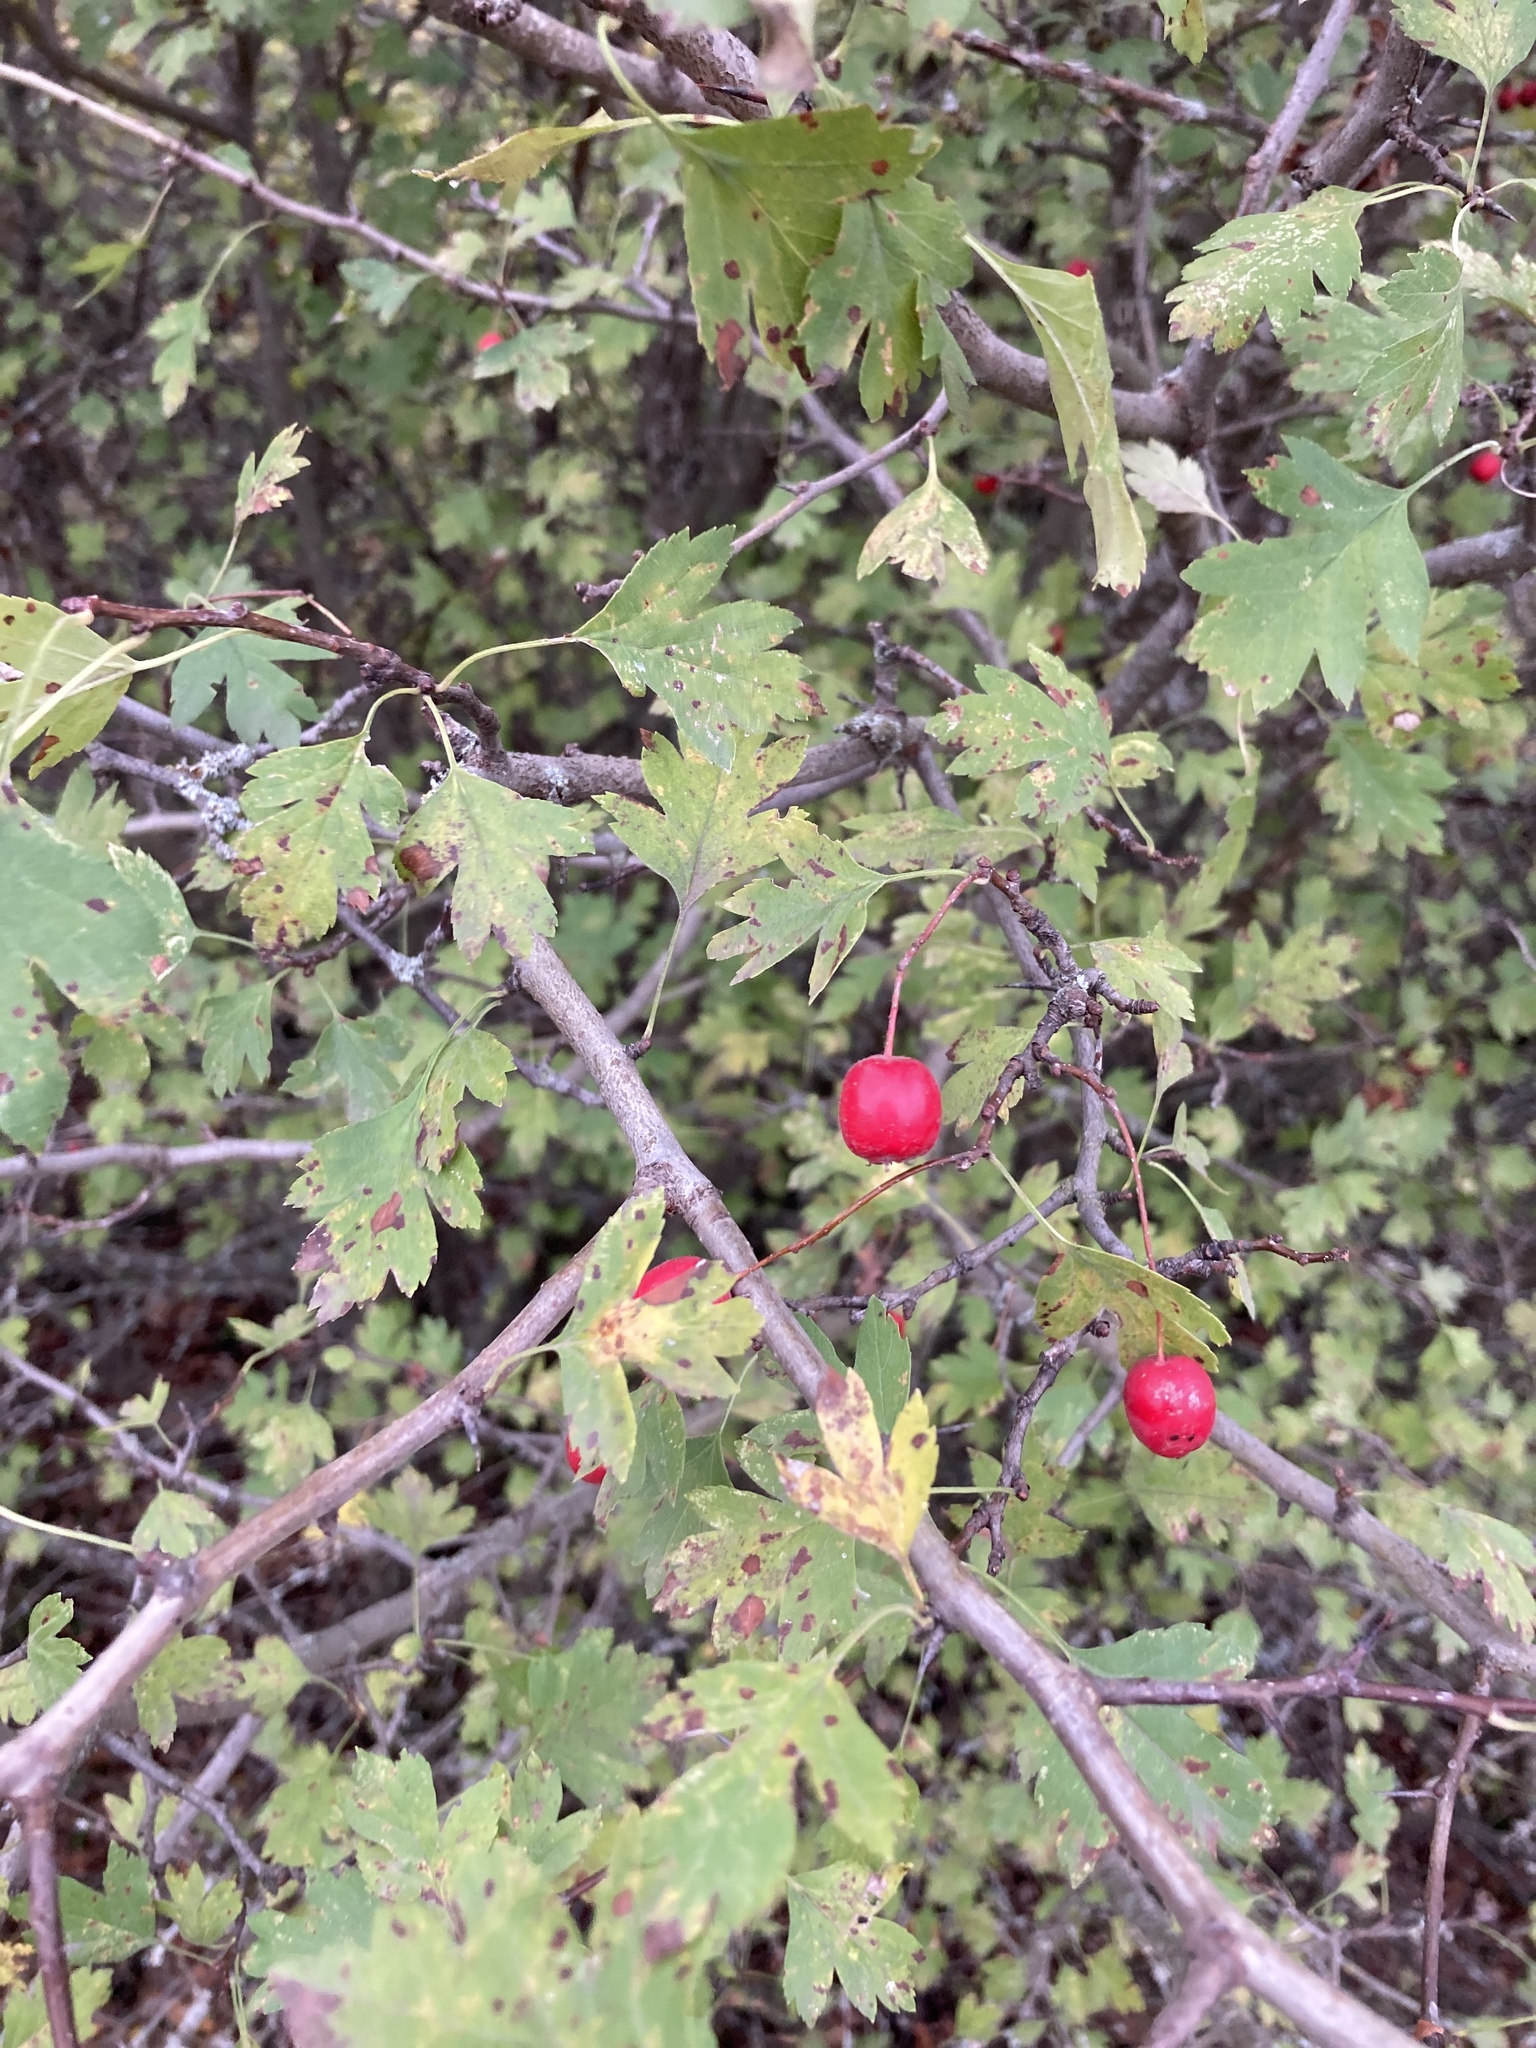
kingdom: Plantae
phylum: Tracheophyta
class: Magnoliopsida
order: Rosales
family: Rosaceae
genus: Crataegus
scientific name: Crataegus monogyna
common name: Hawthorn
